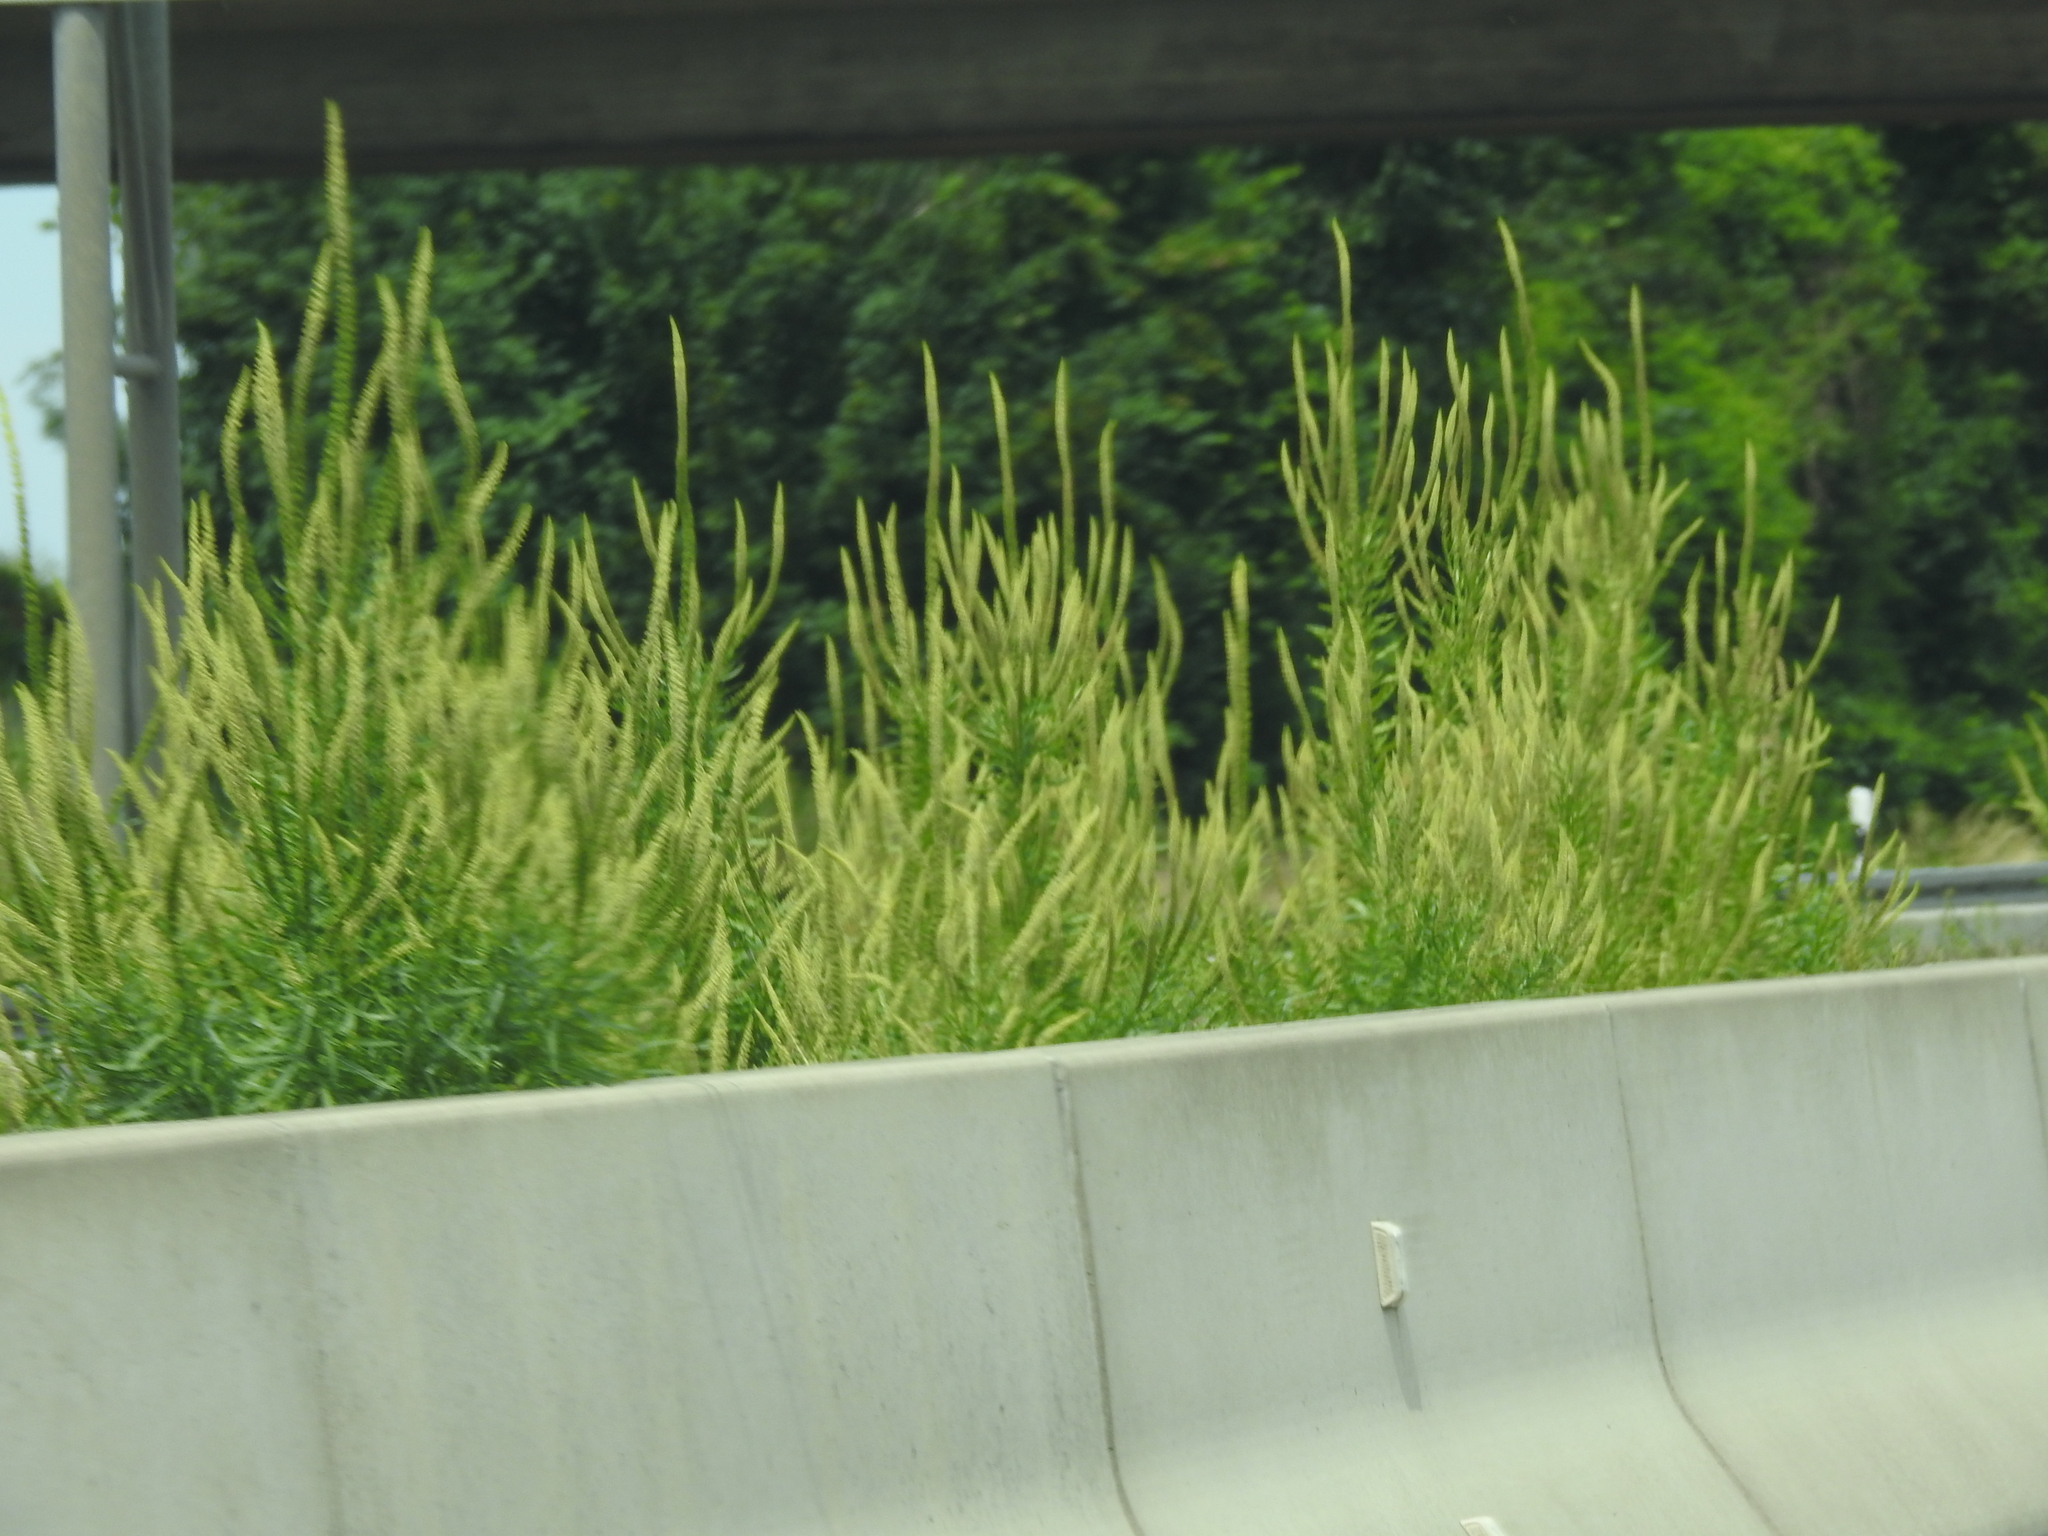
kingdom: Plantae
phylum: Tracheophyta
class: Magnoliopsida
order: Brassicales
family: Resedaceae
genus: Reseda
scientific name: Reseda luteola
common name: Weld
